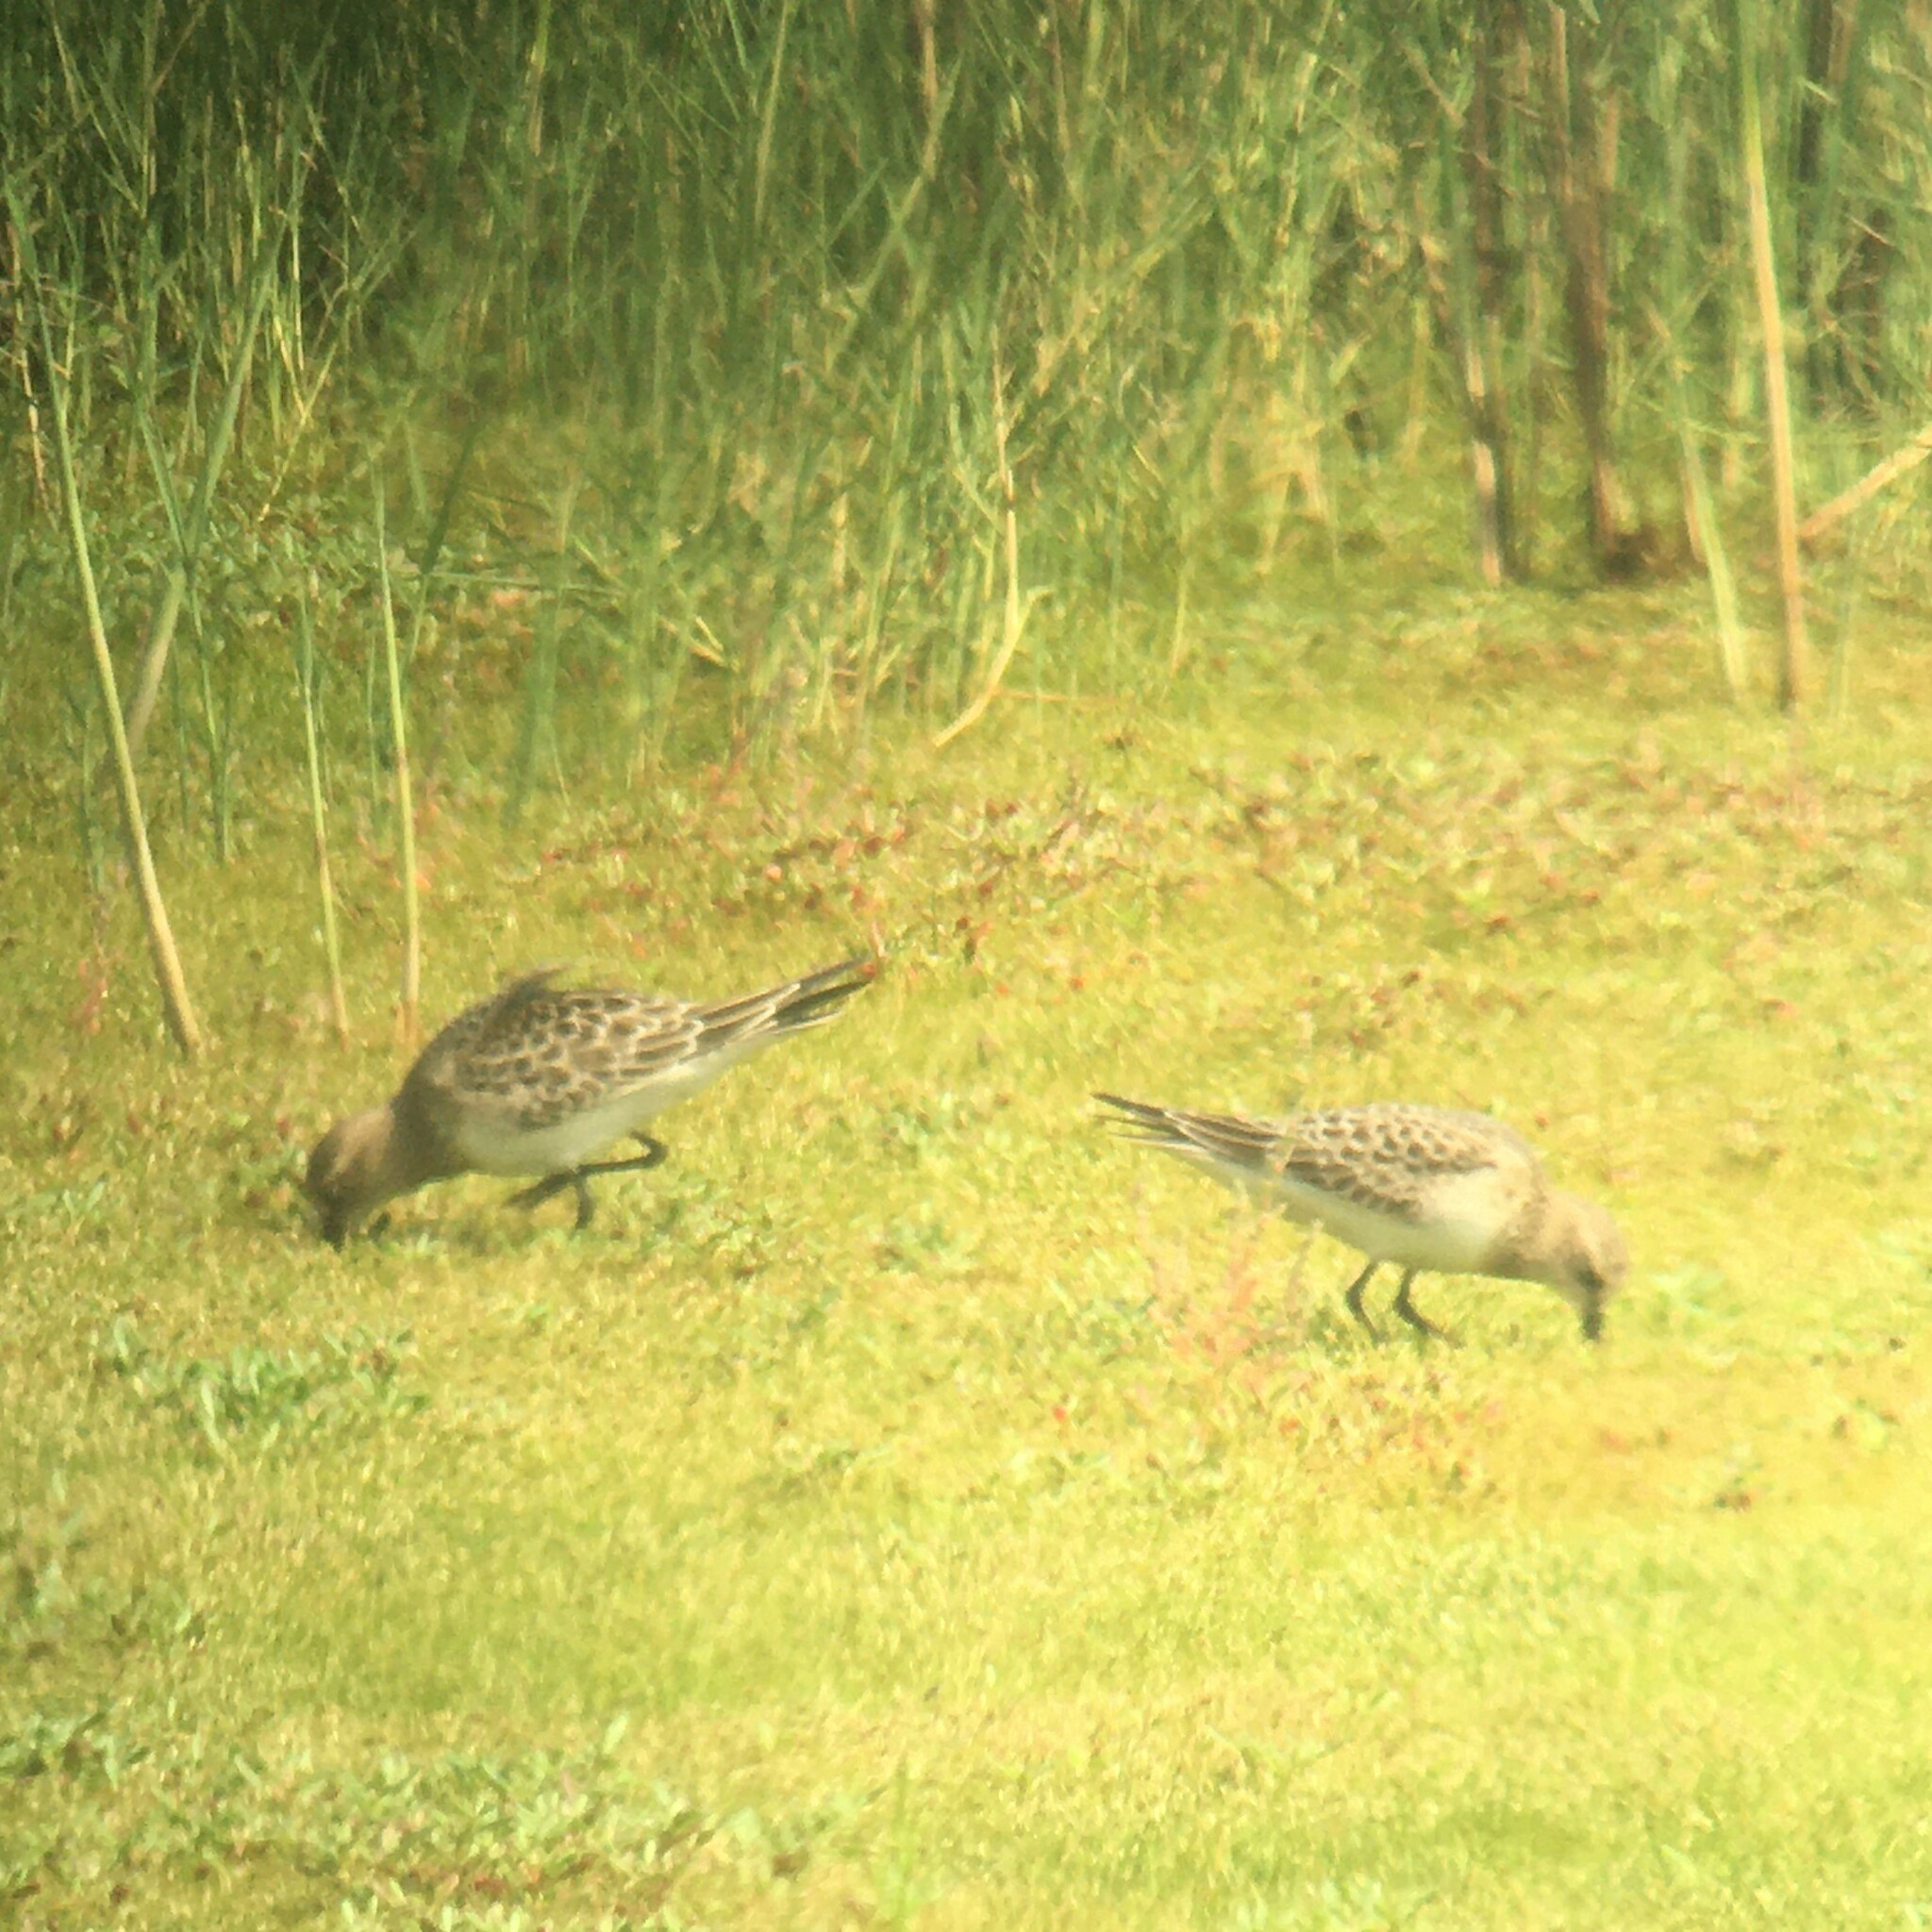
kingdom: Animalia
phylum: Chordata
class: Aves
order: Charadriiformes
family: Scolopacidae
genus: Calidris
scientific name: Calidris bairdii
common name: Baird's sandpiper
